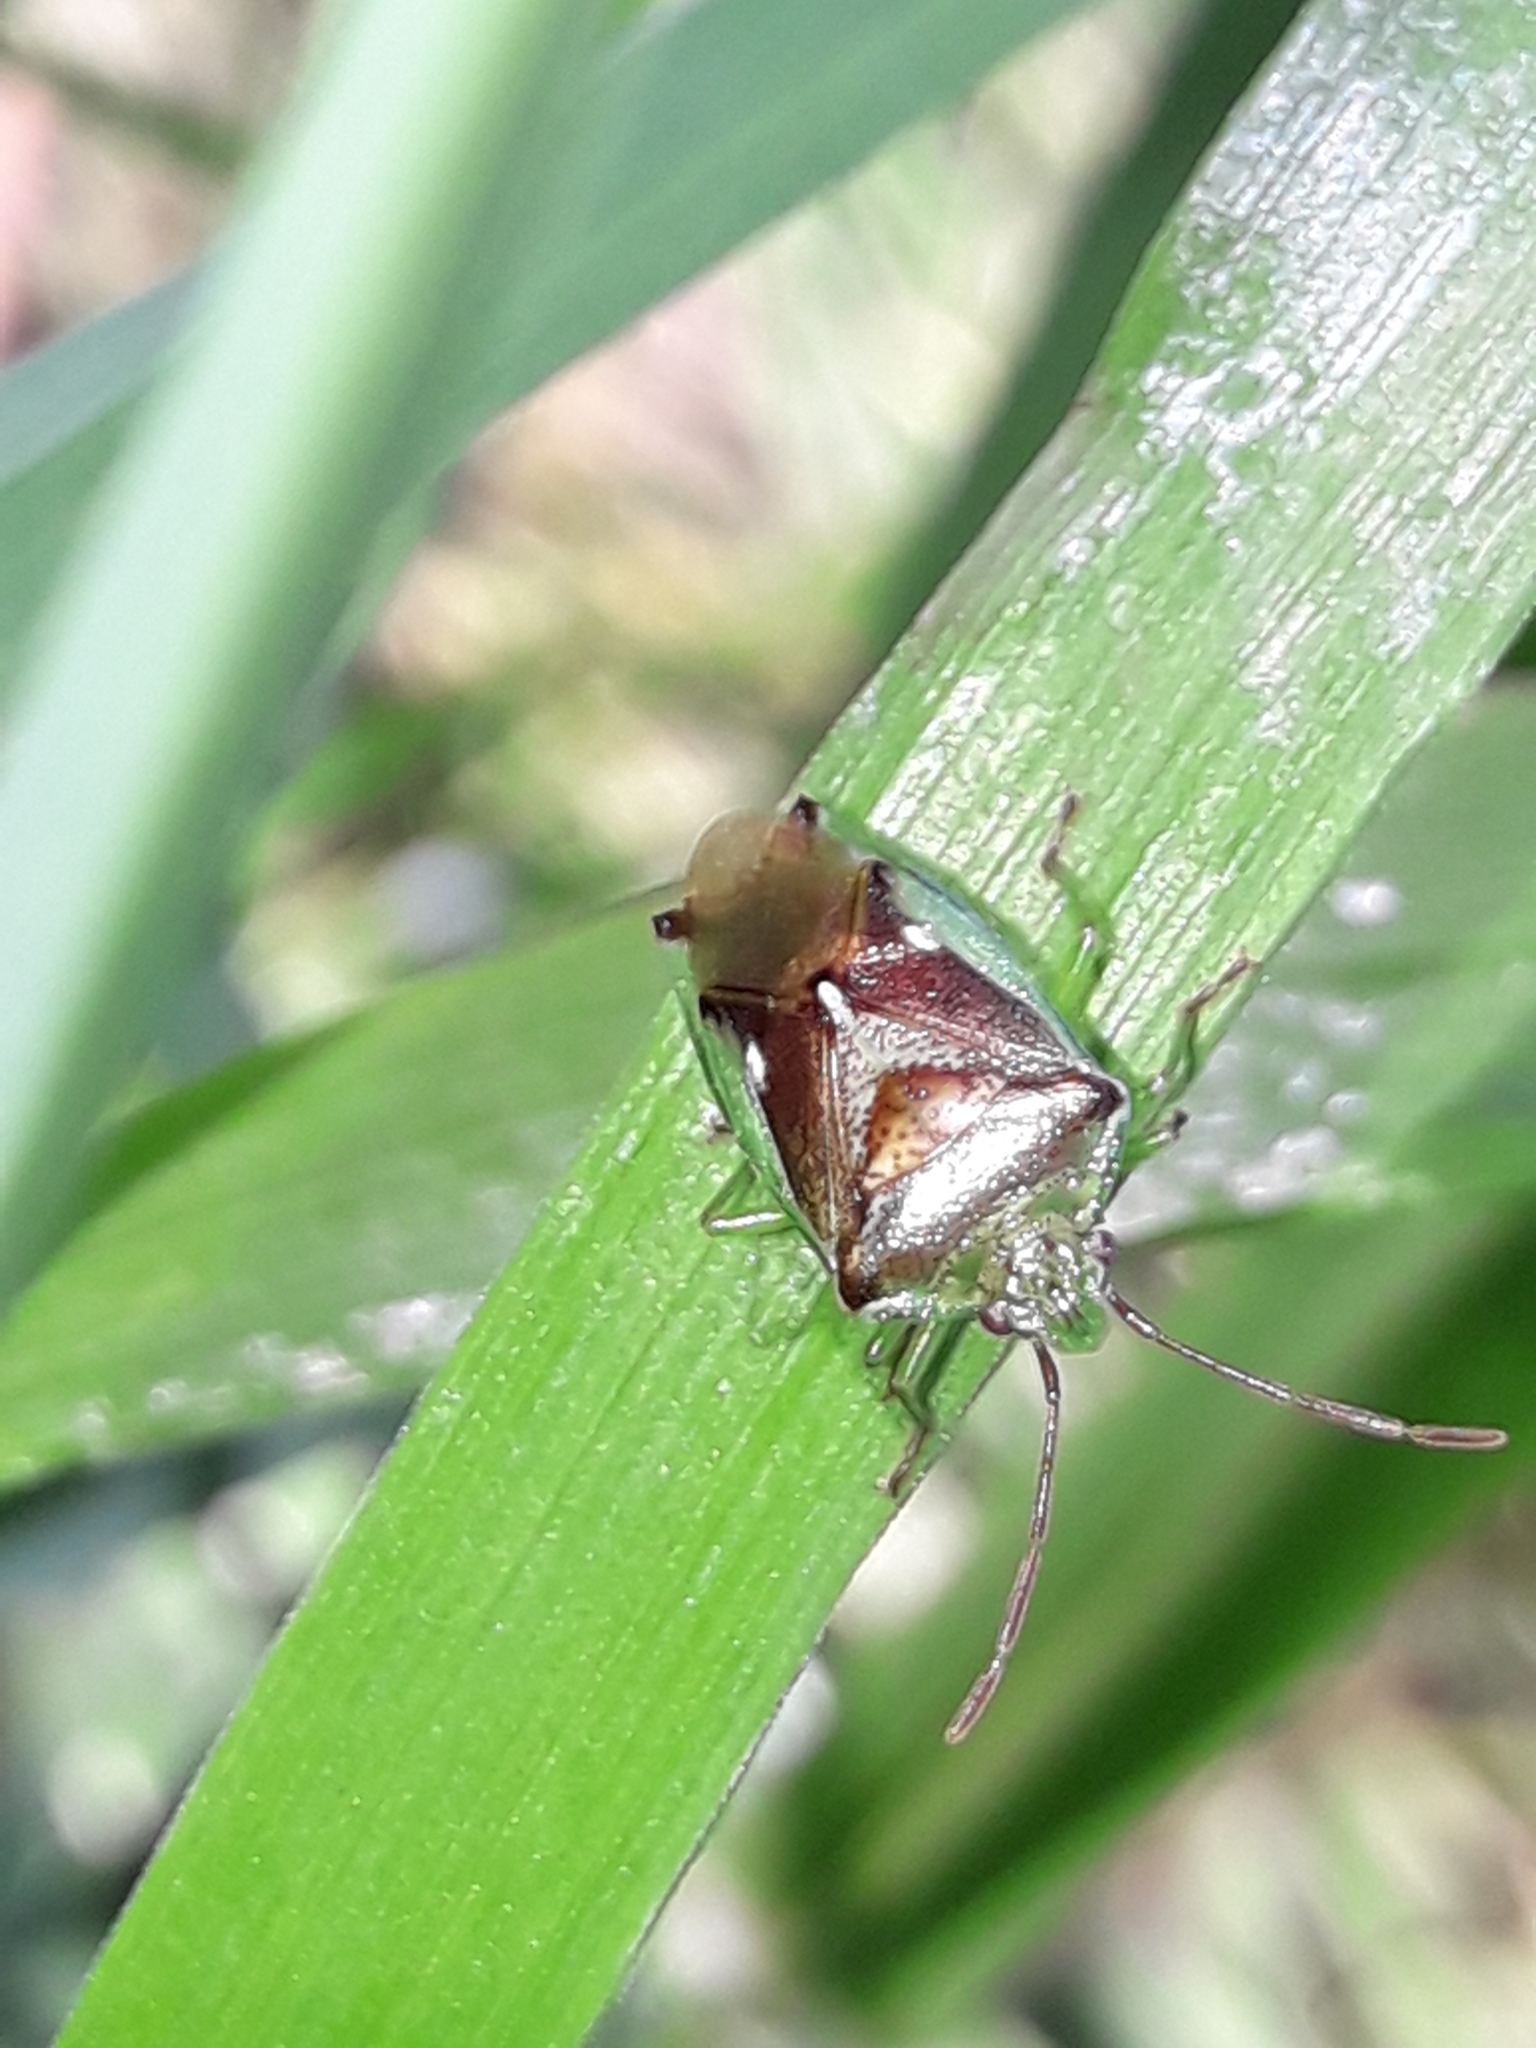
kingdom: Animalia
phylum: Arthropoda
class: Insecta
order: Hemiptera
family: Acanthosomatidae
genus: Oncacontias
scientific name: Oncacontias vittatus
